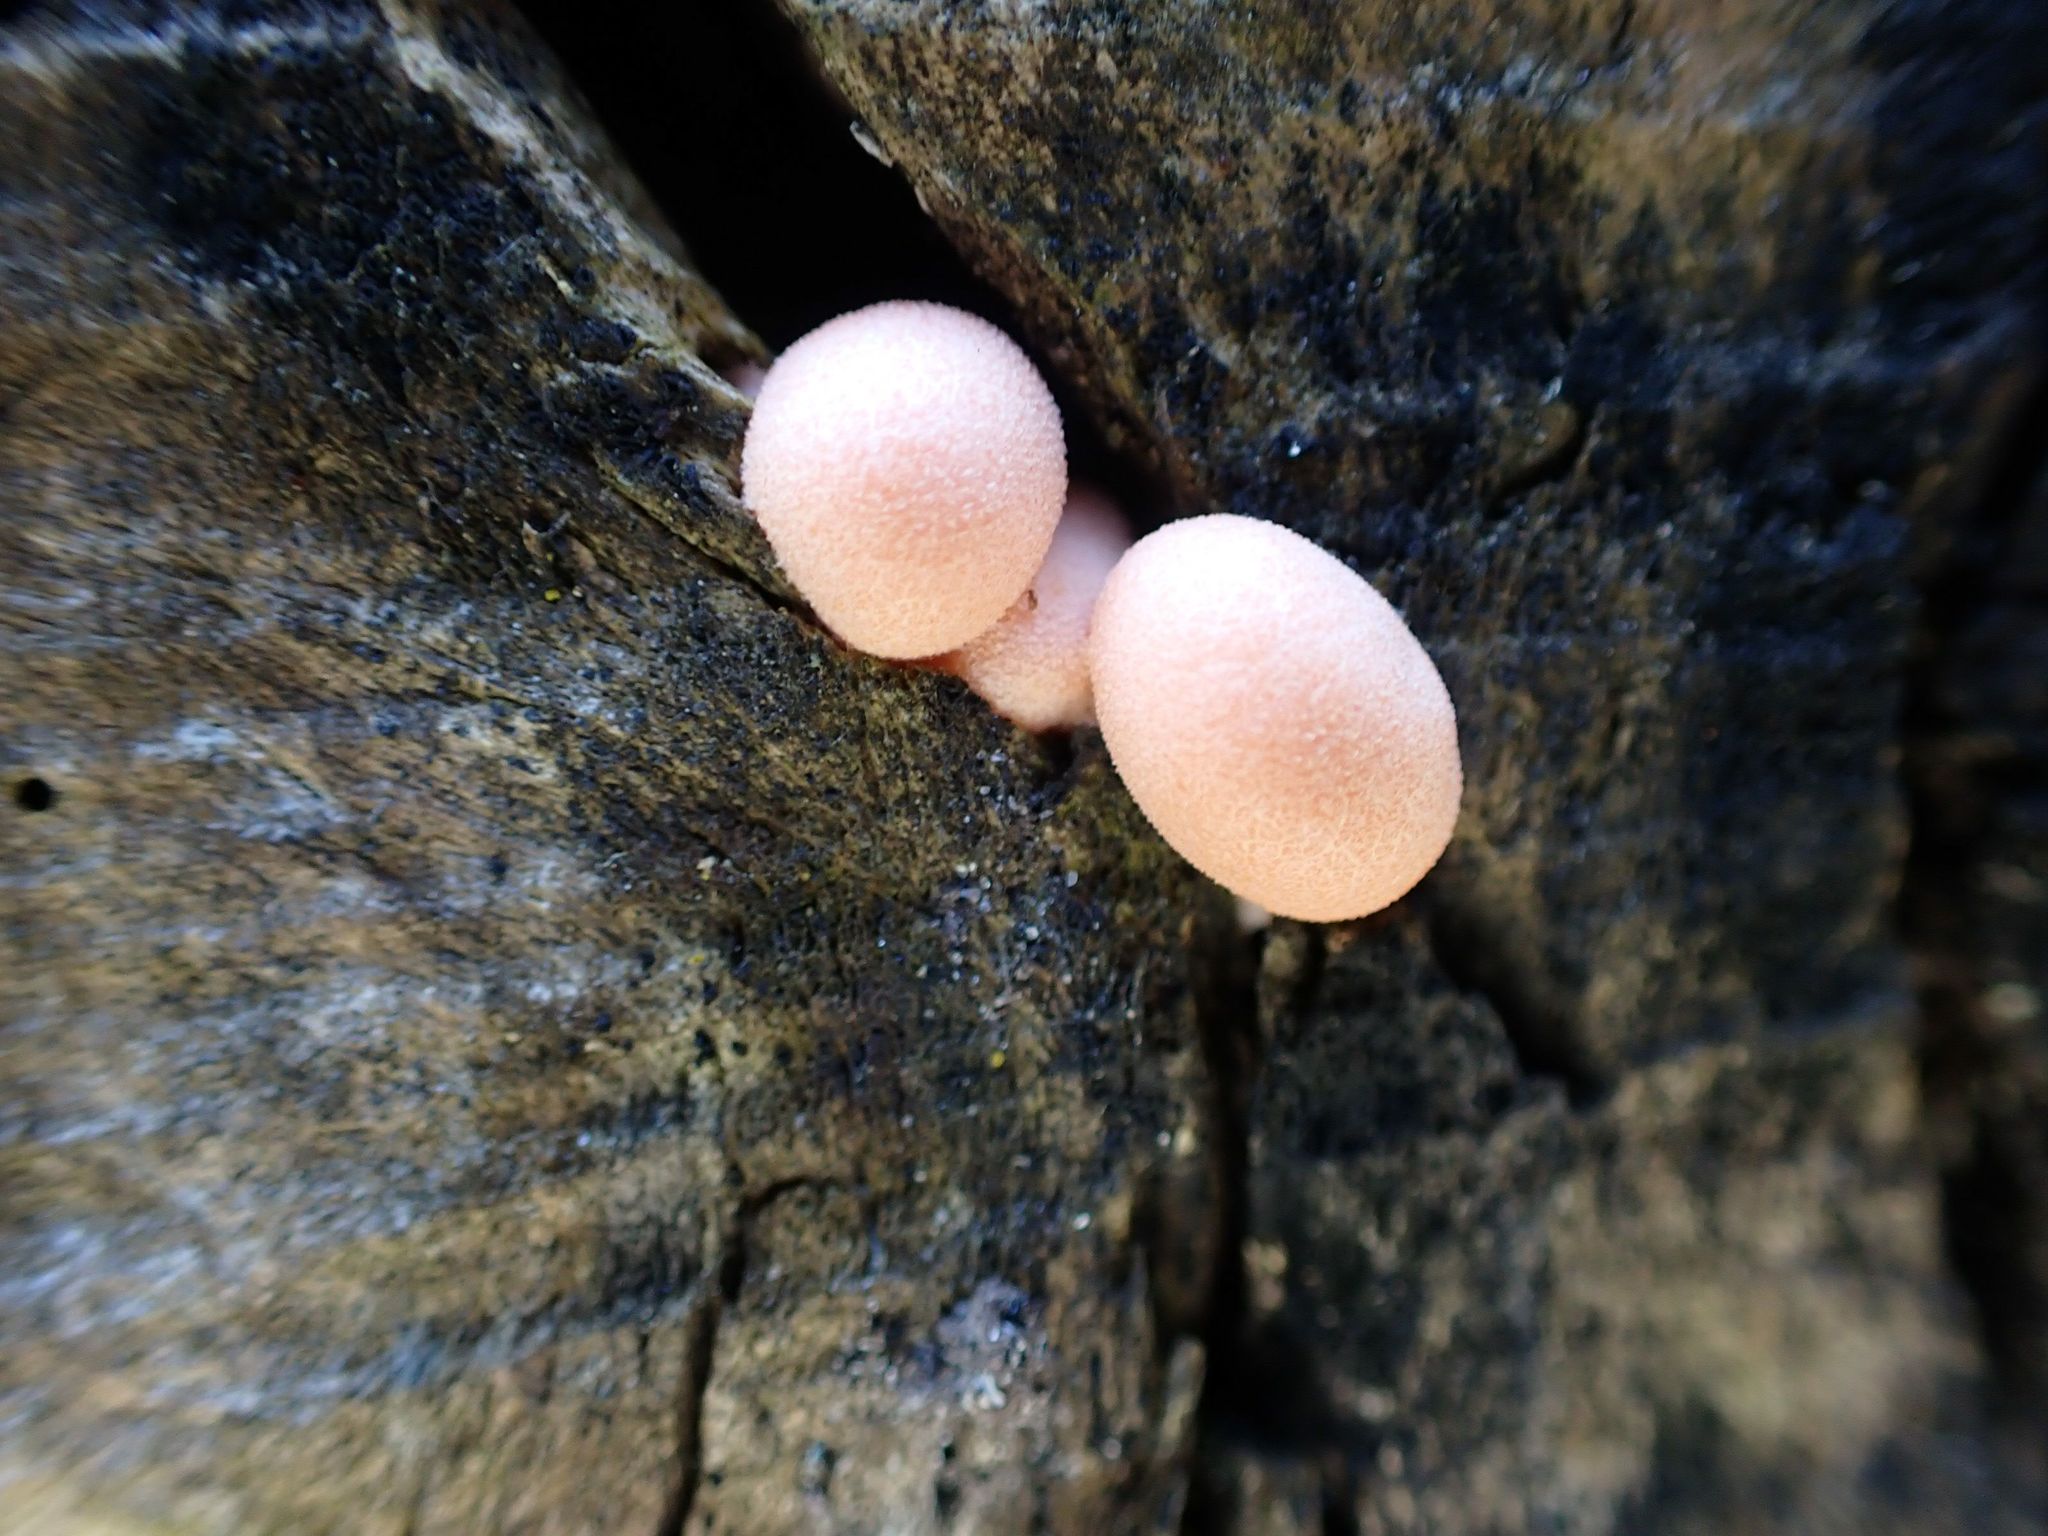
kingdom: Protozoa
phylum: Mycetozoa
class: Myxomycetes
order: Cribrariales
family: Tubiferaceae
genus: Lycogala
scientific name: Lycogala epidendrum
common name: Wolf's milk
